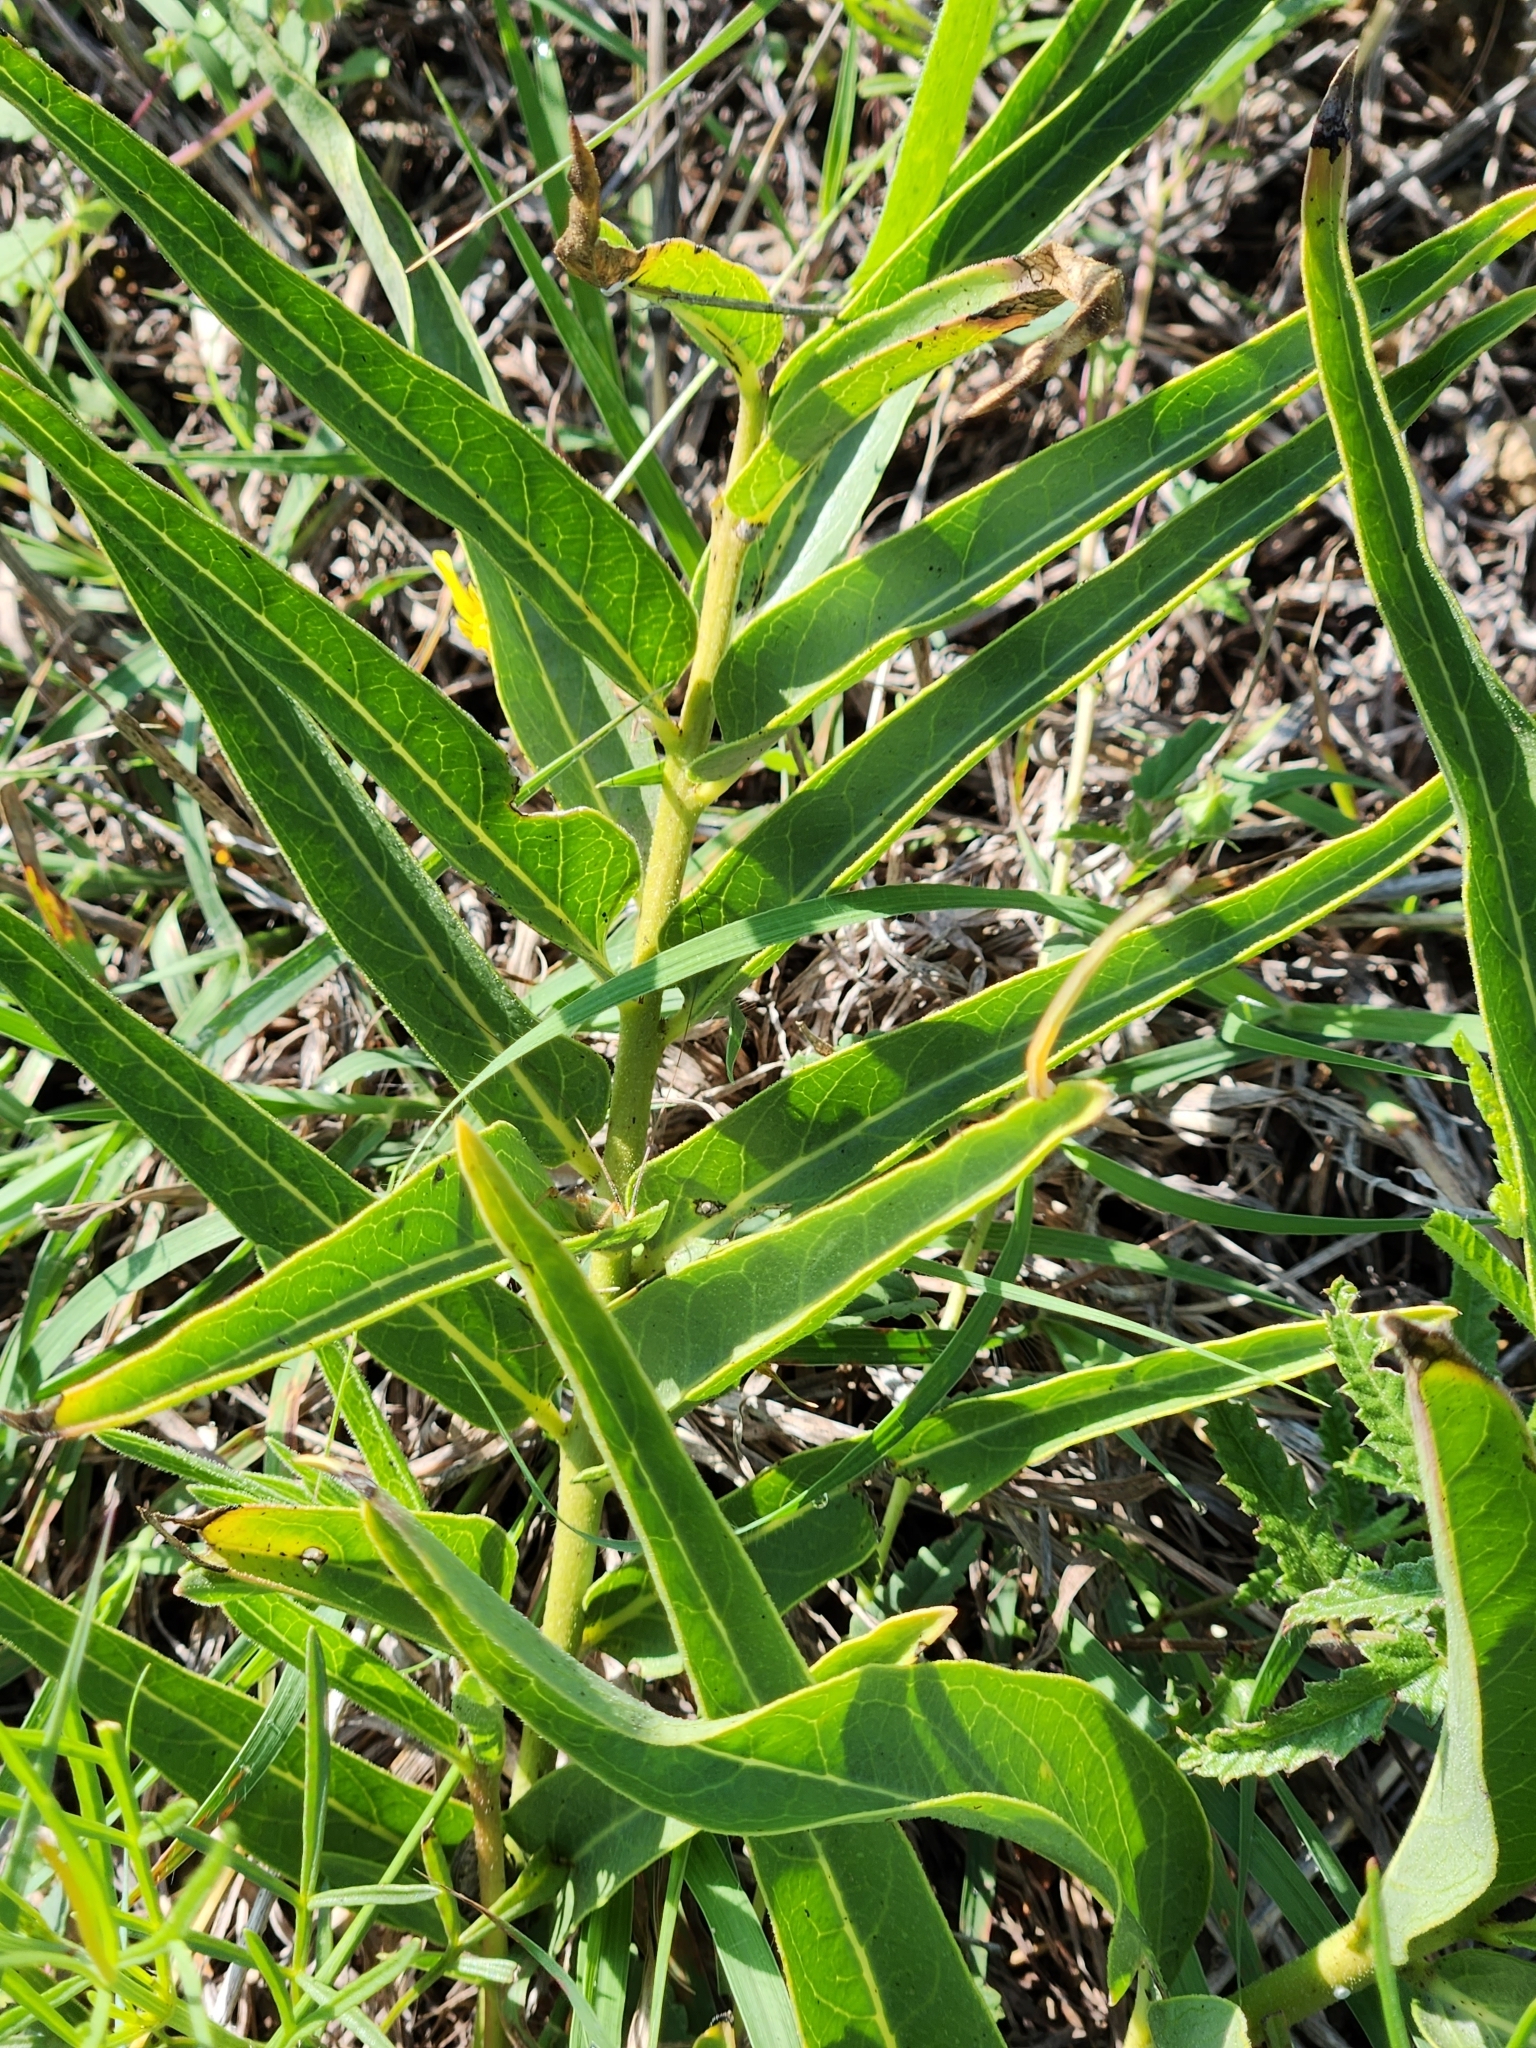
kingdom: Plantae
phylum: Tracheophyta
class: Magnoliopsida
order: Gentianales
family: Apocynaceae
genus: Asclepias
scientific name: Asclepias asperula
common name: Antelope horns
